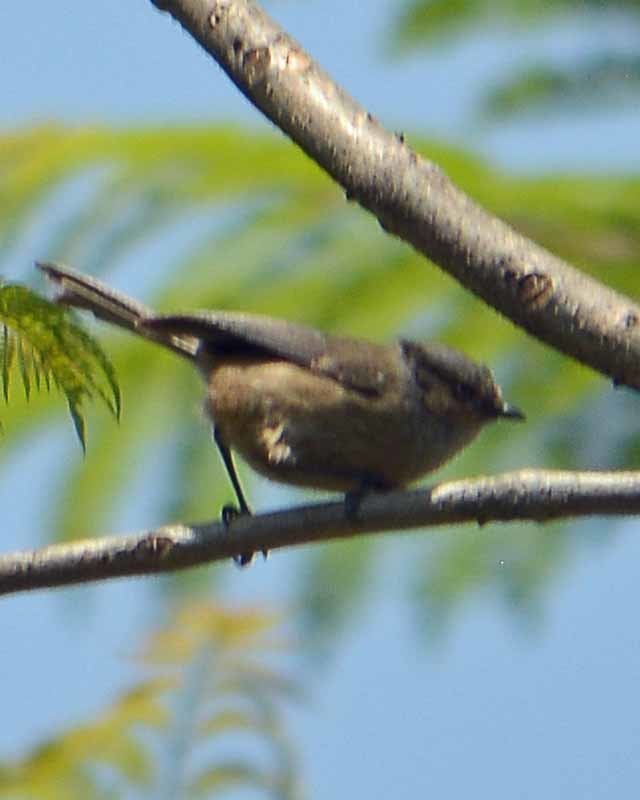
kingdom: Animalia
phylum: Chordata
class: Aves
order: Passeriformes
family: Aegithalidae
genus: Psaltriparus
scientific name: Psaltriparus minimus
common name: American bushtit
